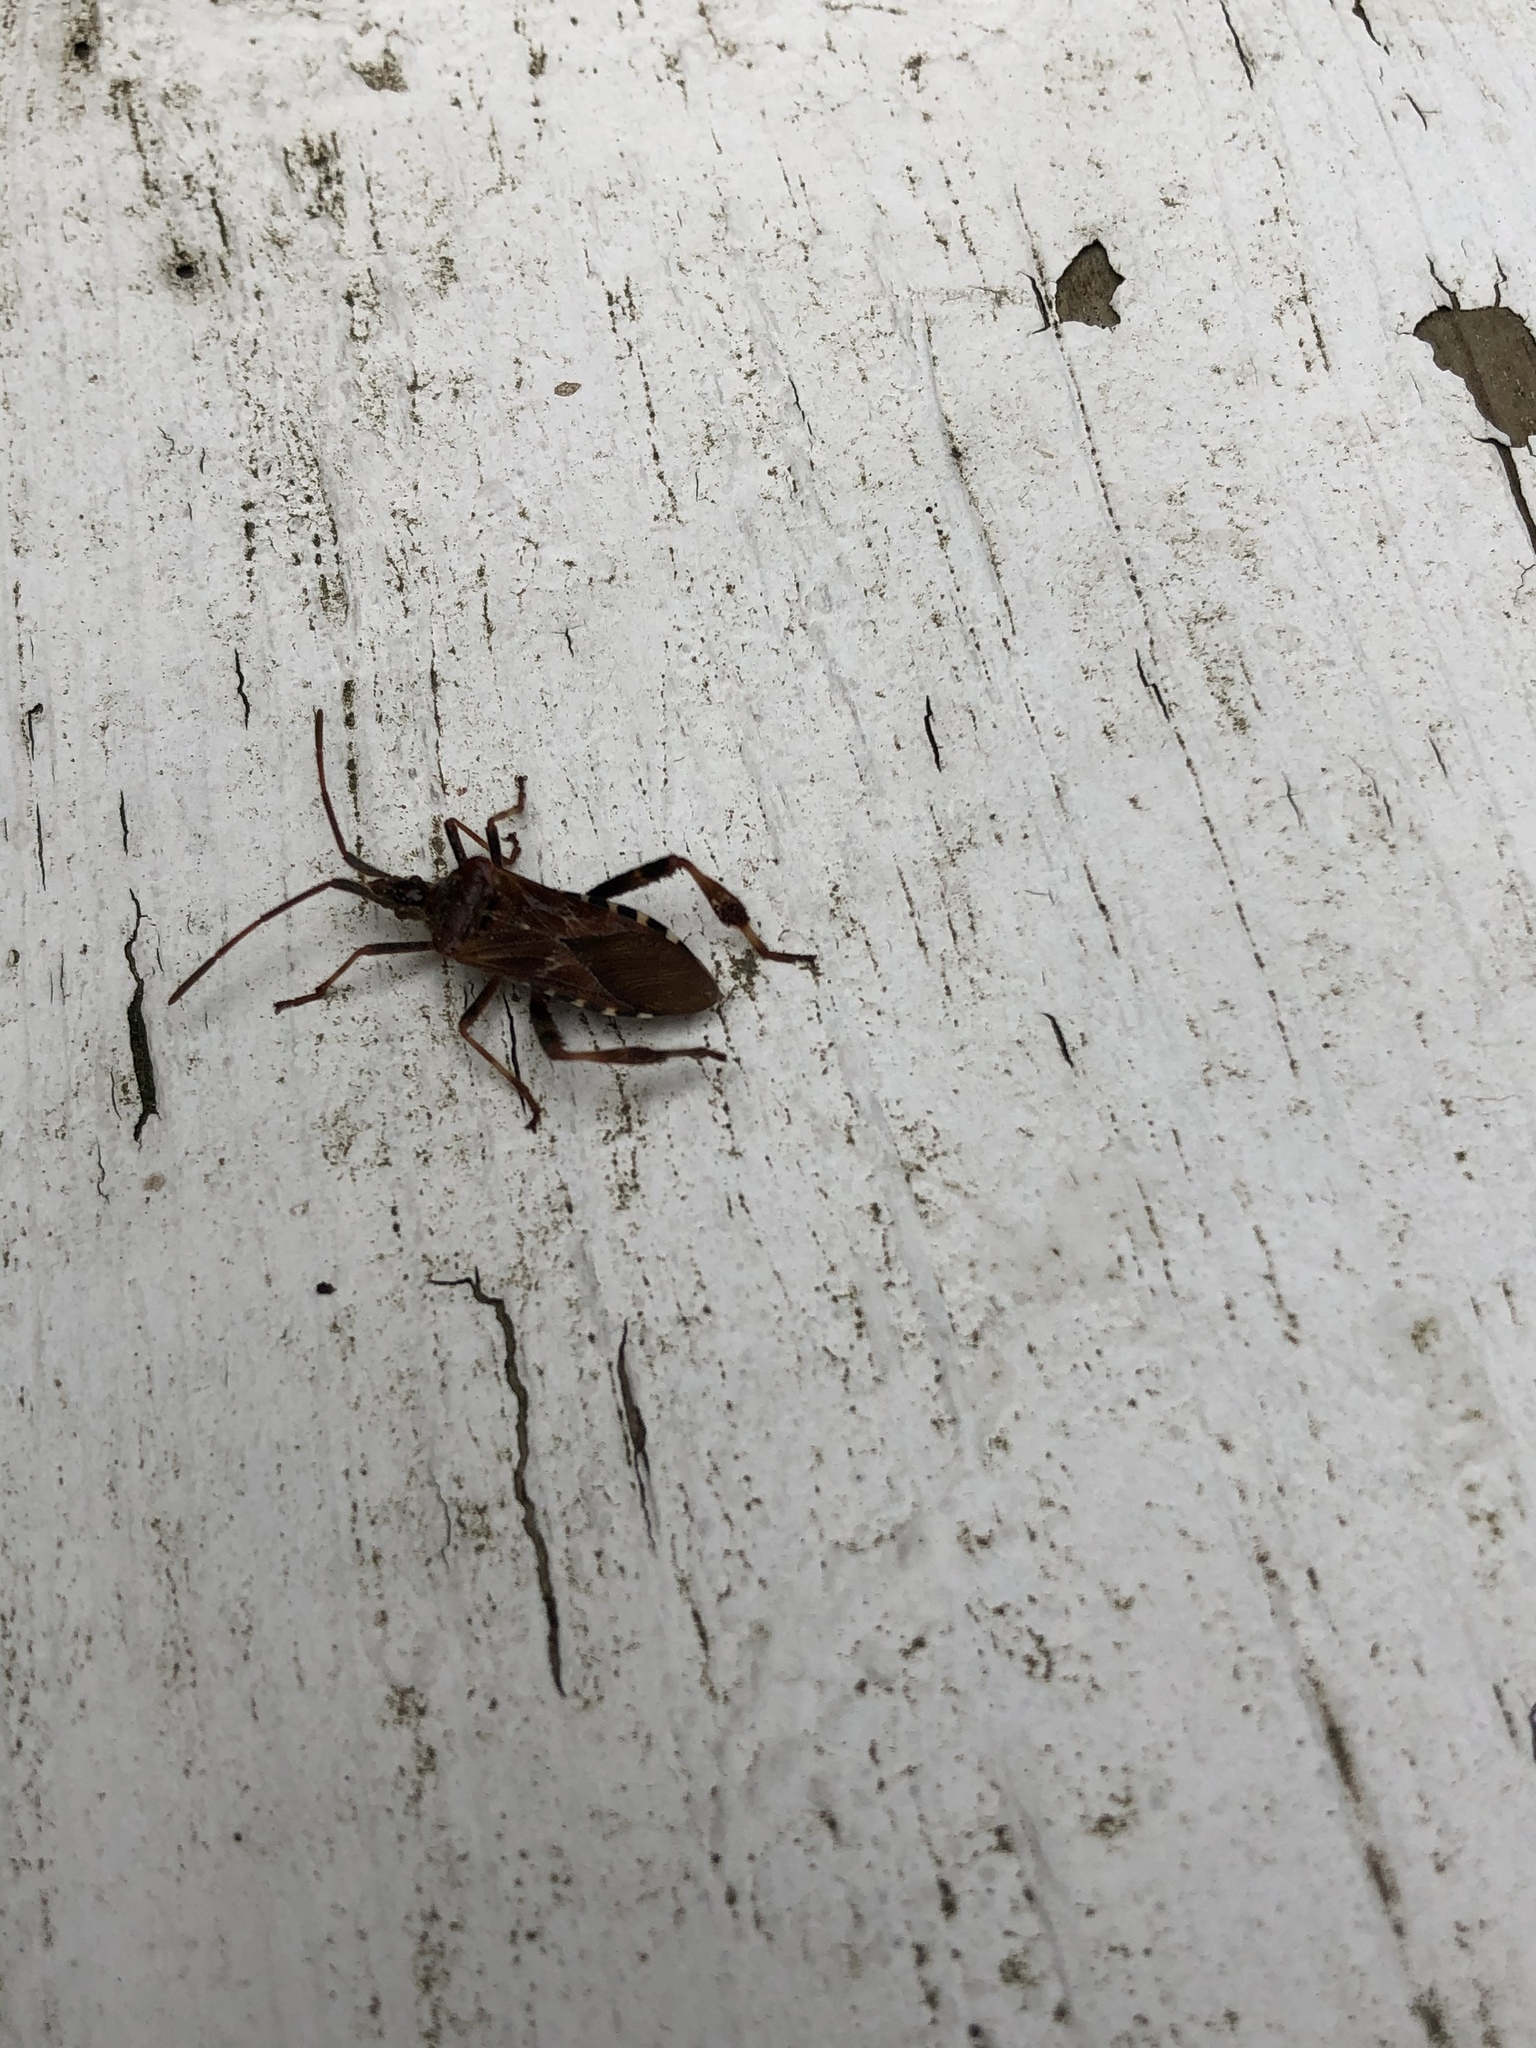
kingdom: Animalia
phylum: Arthropoda
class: Insecta
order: Hemiptera
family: Coreidae
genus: Leptoglossus
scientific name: Leptoglossus occidentalis
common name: Western conifer-seed bug
